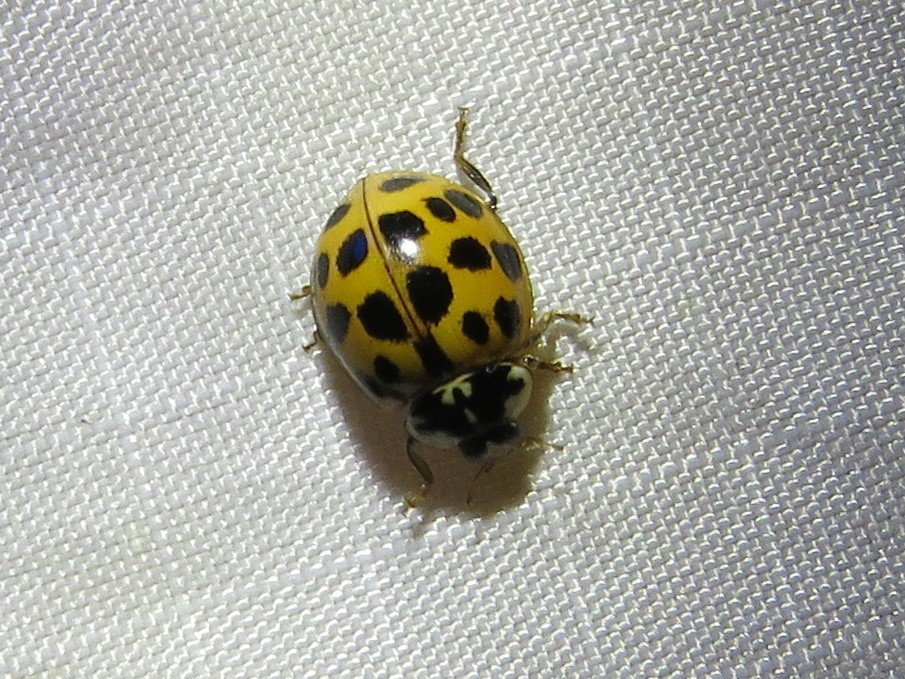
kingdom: Animalia
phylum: Arthropoda
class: Insecta
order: Coleoptera
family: Coccinellidae
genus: Harmonia
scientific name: Harmonia axyridis
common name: Harlequin ladybird
